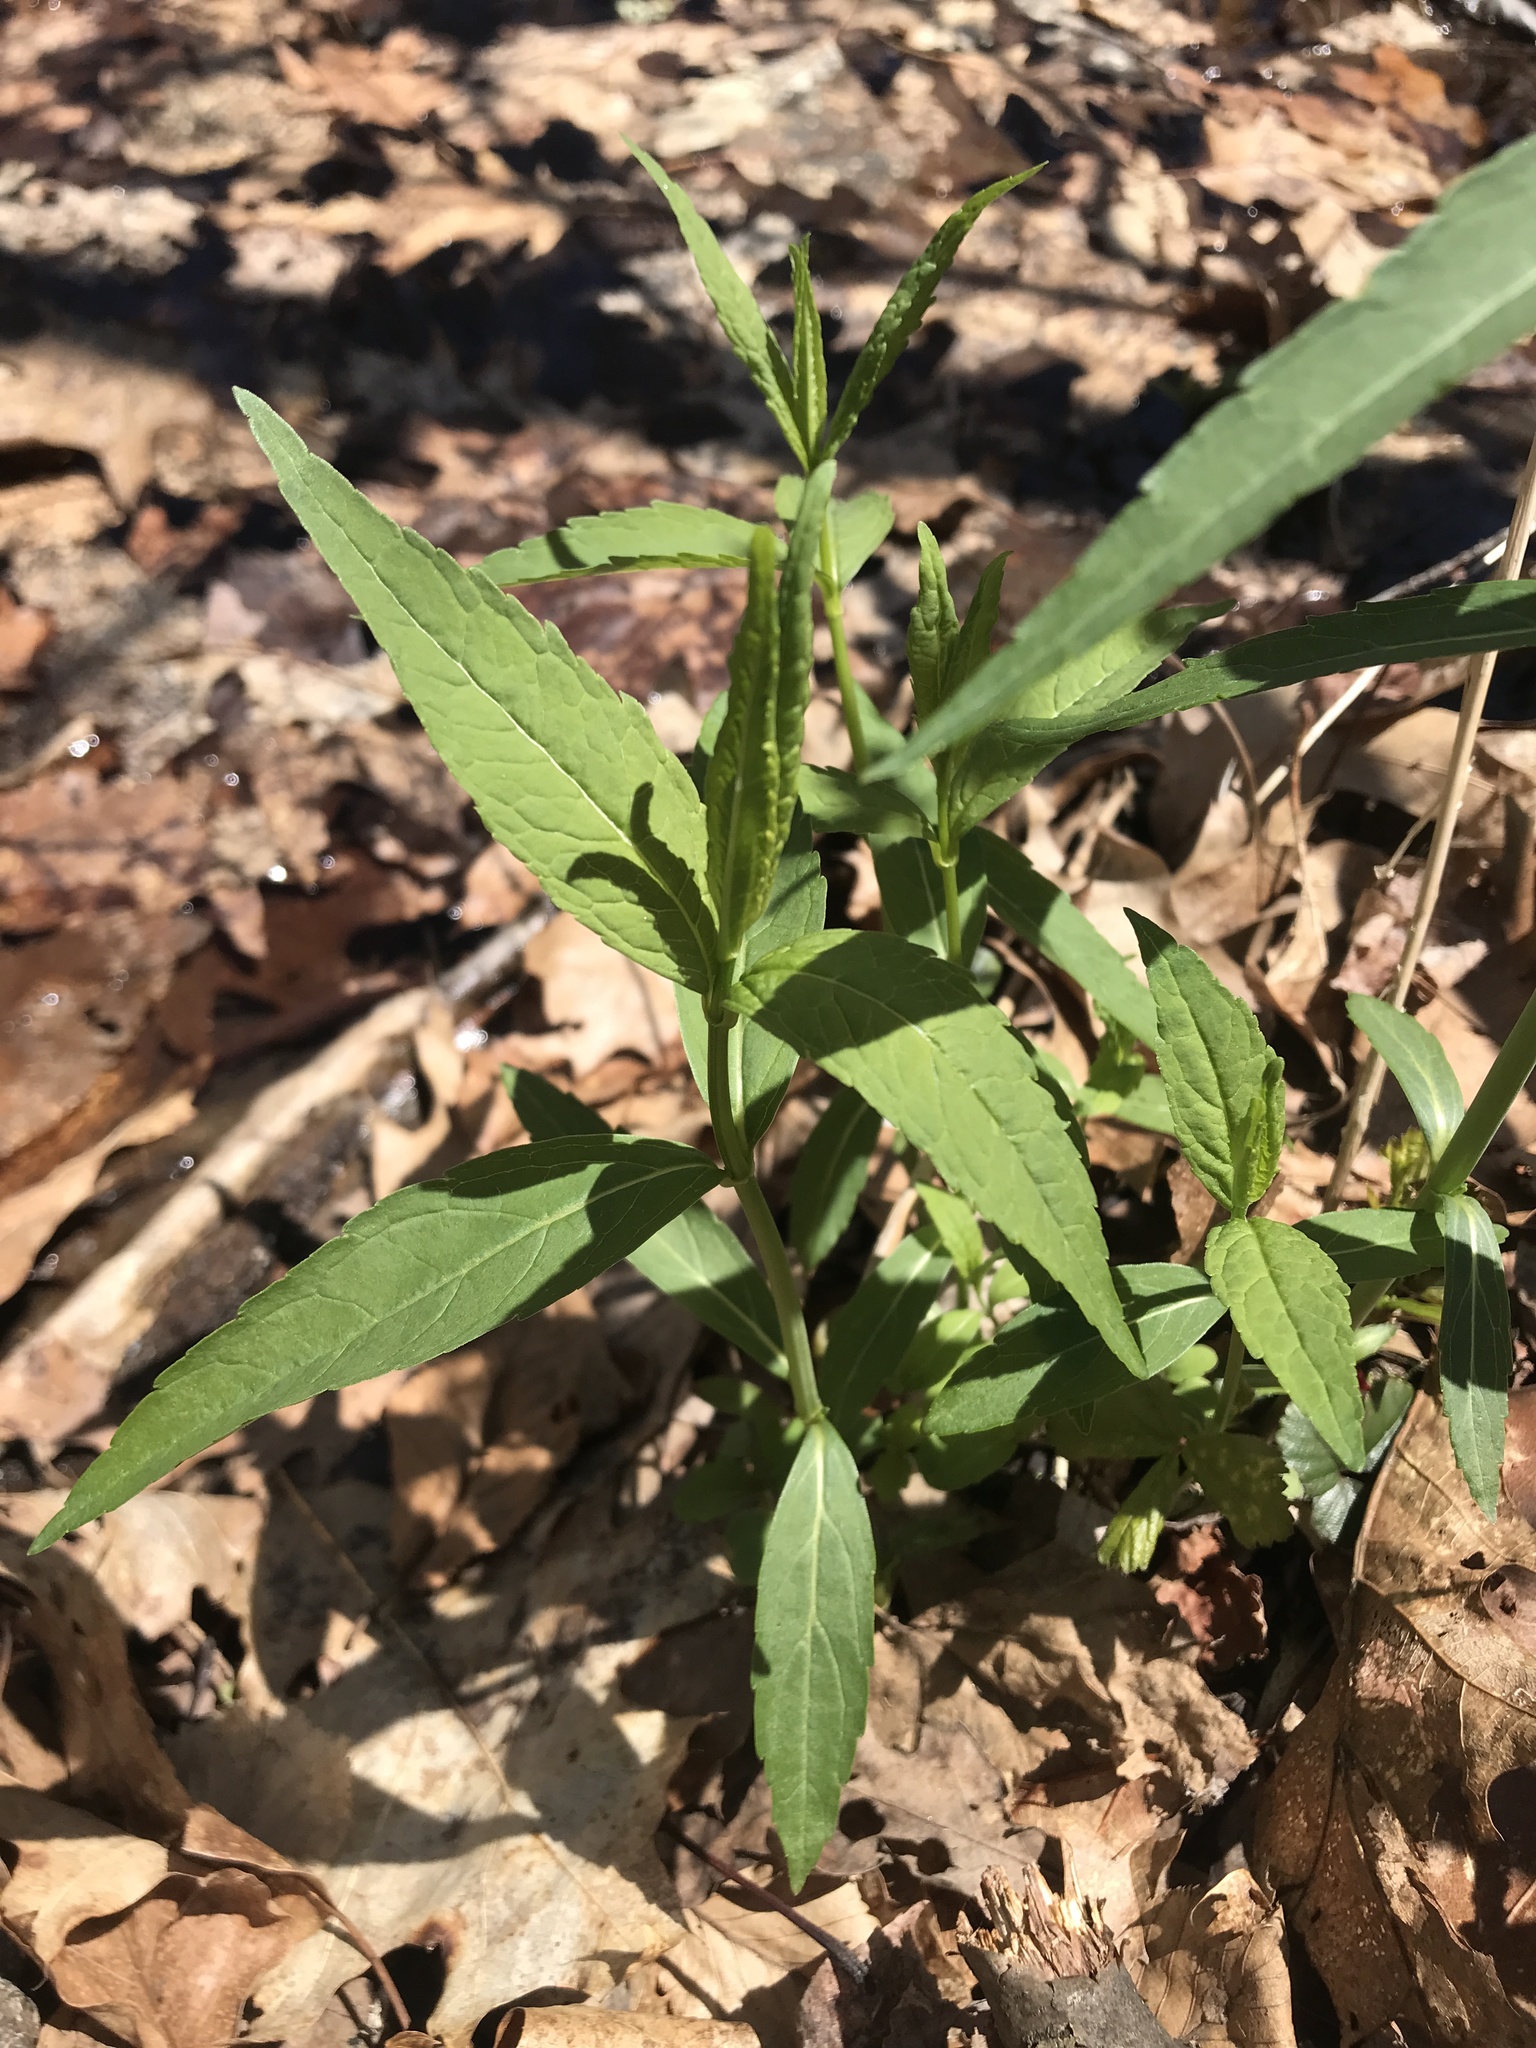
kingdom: Plantae
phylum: Tracheophyta
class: Magnoliopsida
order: Lamiales
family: Plantaginaceae
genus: Chelone
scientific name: Chelone glabra
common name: Snakehead
